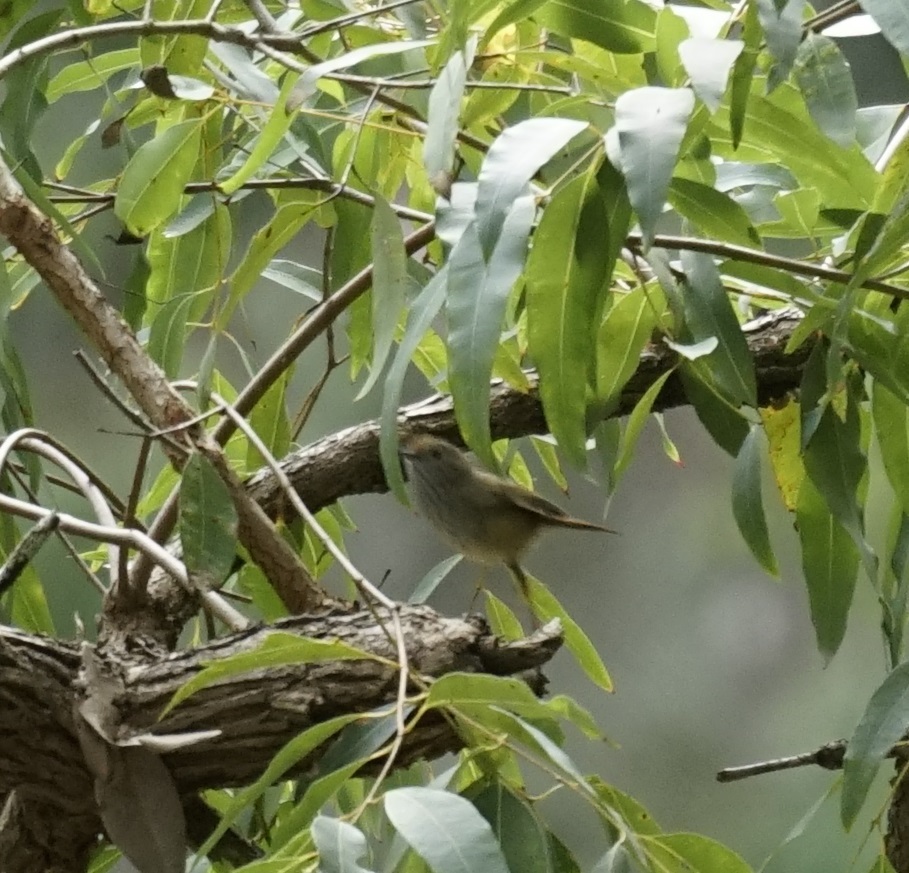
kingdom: Animalia
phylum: Chordata
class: Aves
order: Passeriformes
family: Acanthizidae
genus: Acanthiza
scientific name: Acanthiza pusilla
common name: Brown thornbill
